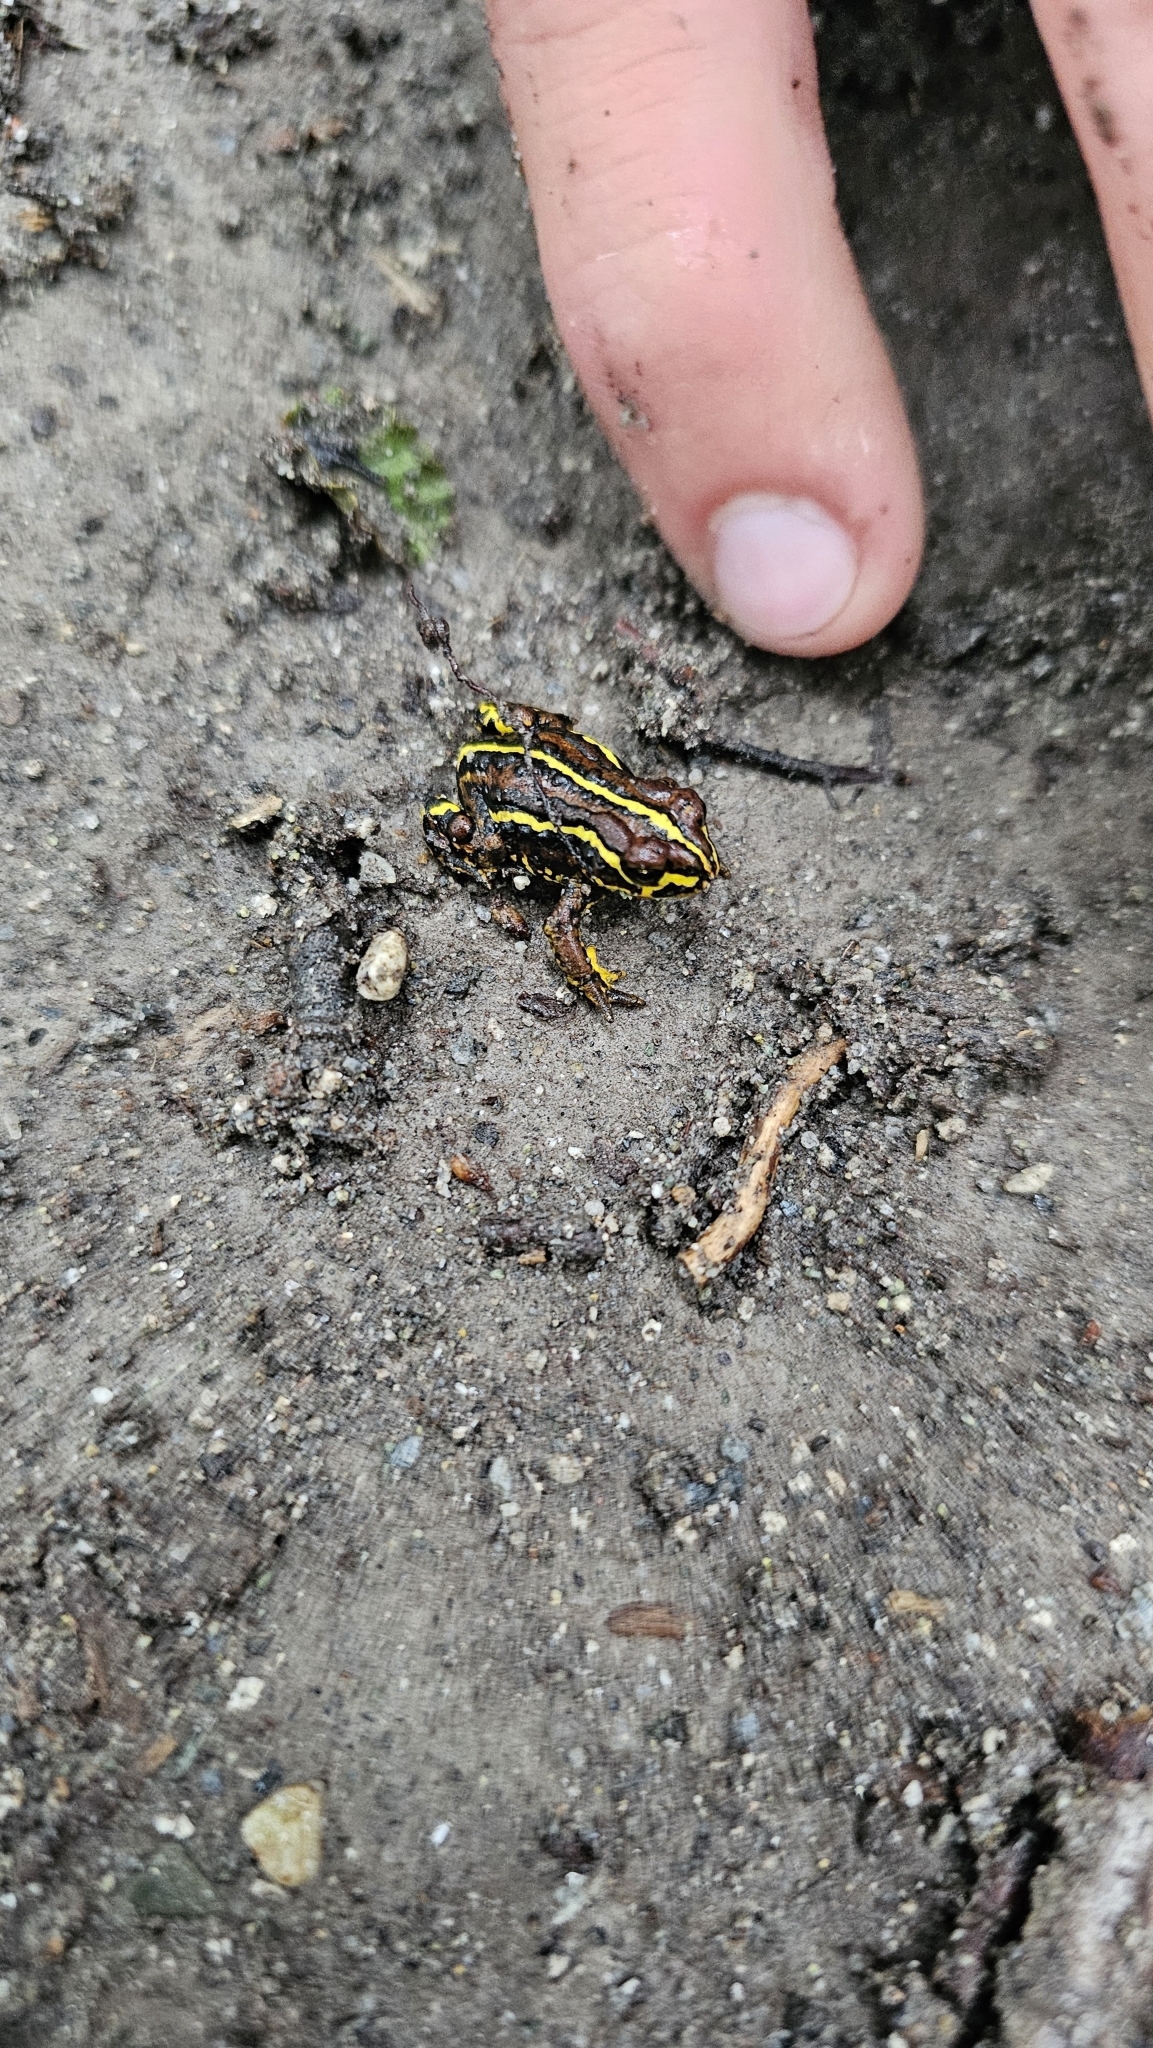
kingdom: Animalia
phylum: Chordata
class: Amphibia
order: Anura
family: Bufonidae
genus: Nannophryne
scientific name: Nannophryne variegata
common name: Eden harbour toad
